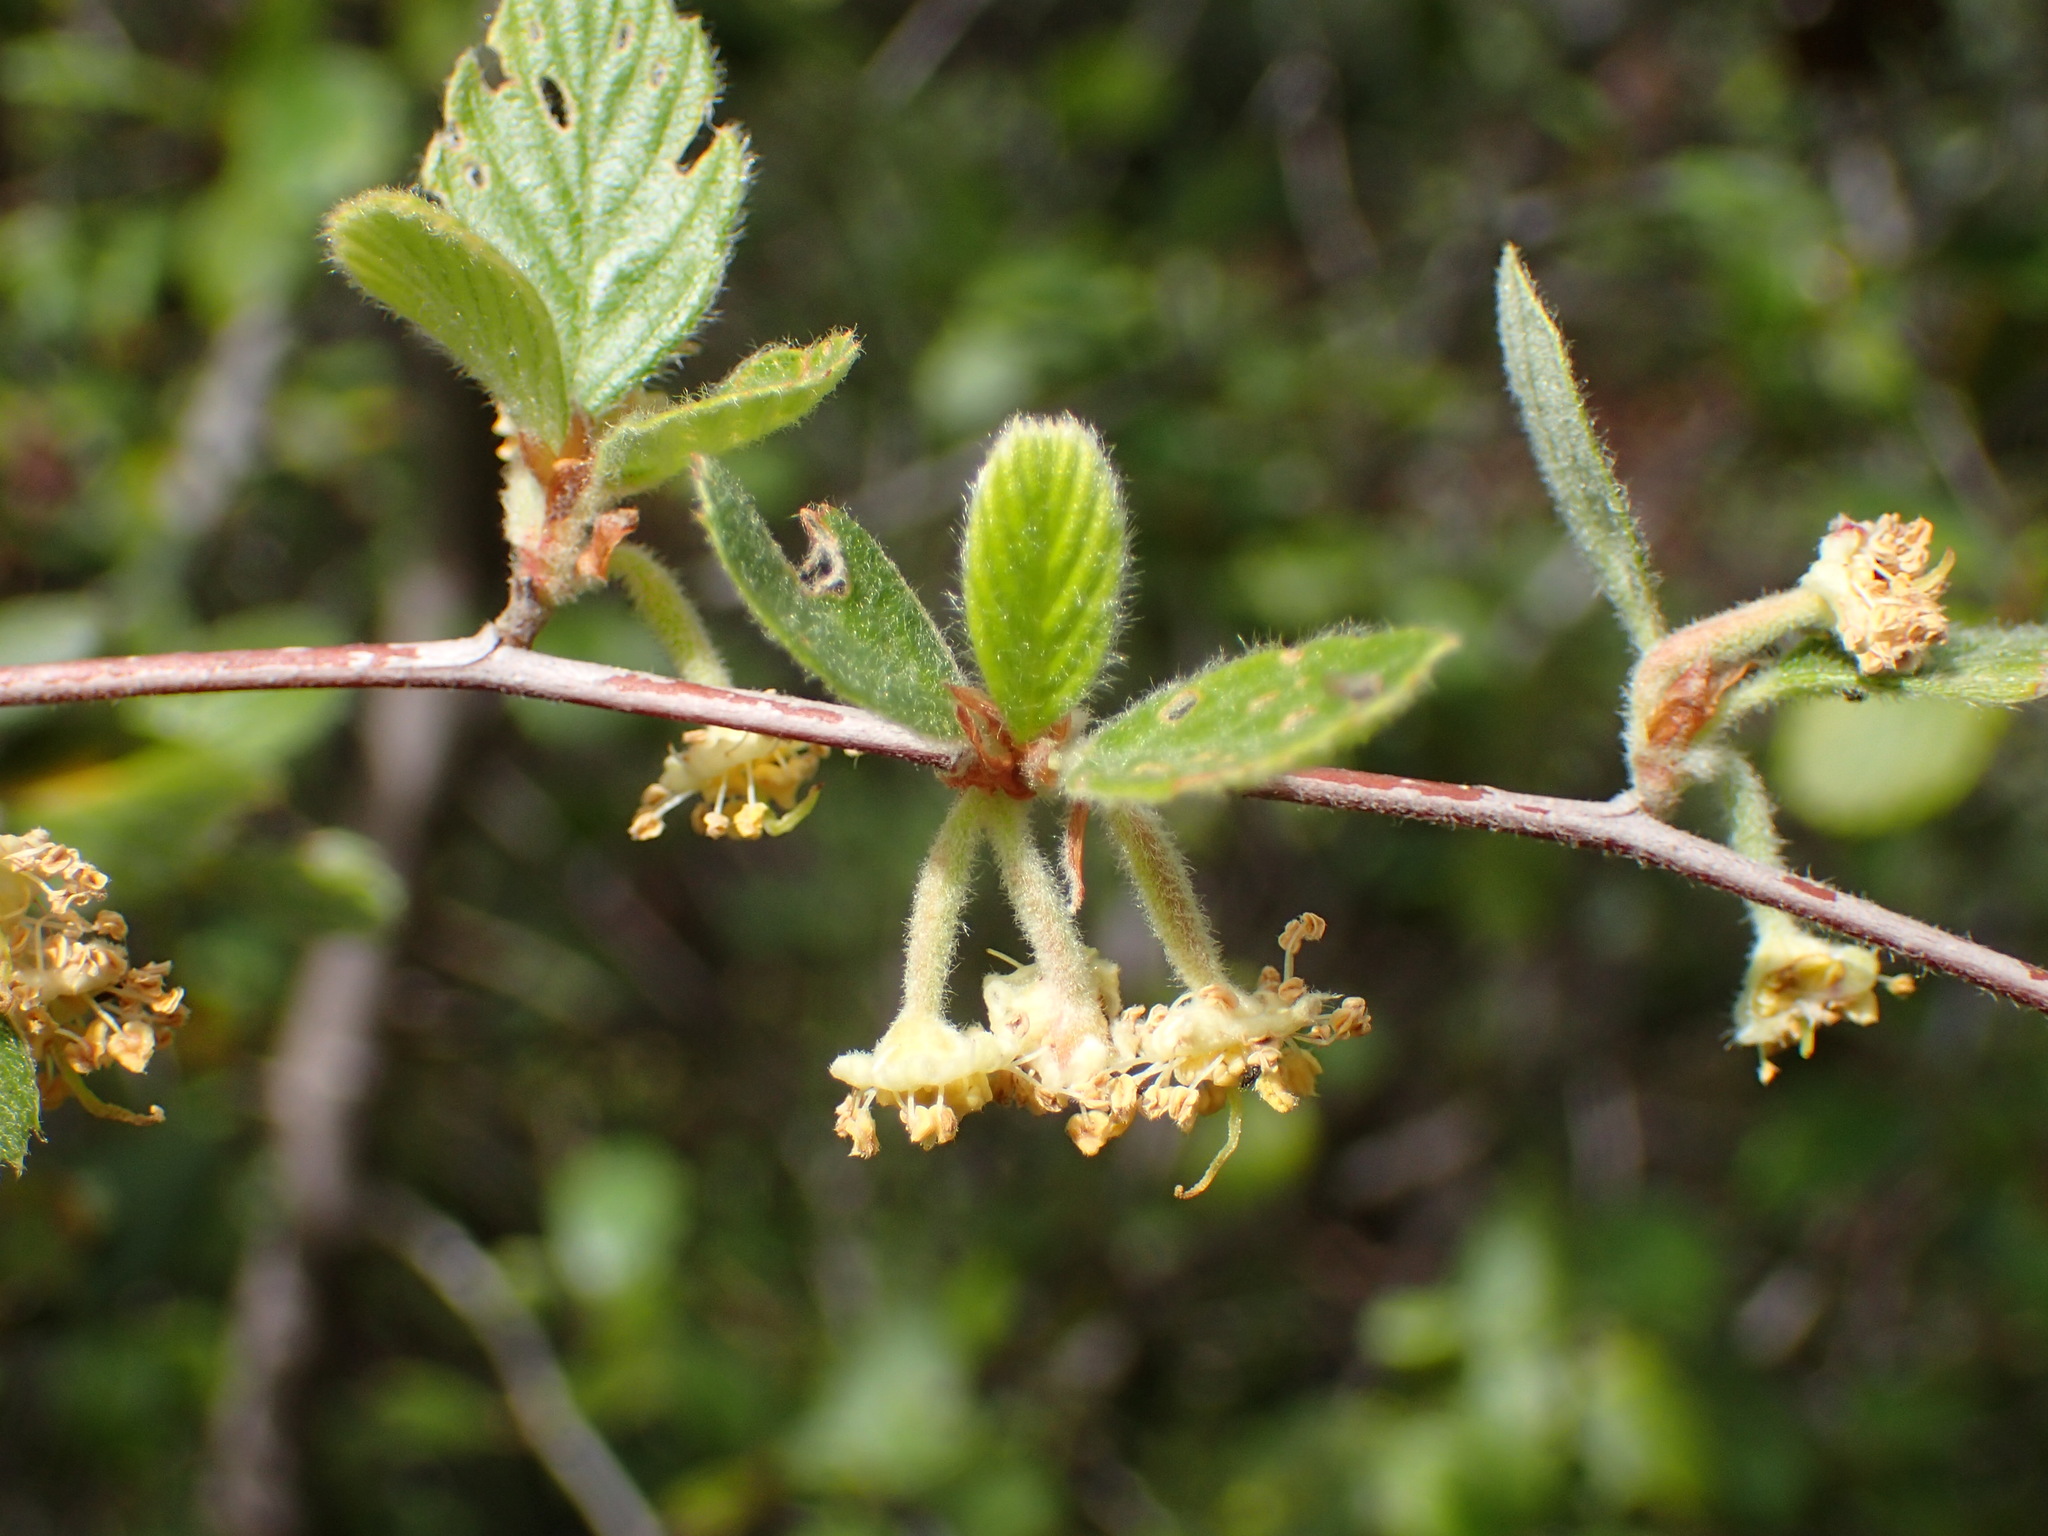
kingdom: Plantae
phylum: Tracheophyta
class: Magnoliopsida
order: Rosales
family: Rosaceae
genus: Cercocarpus
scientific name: Cercocarpus betuloides
